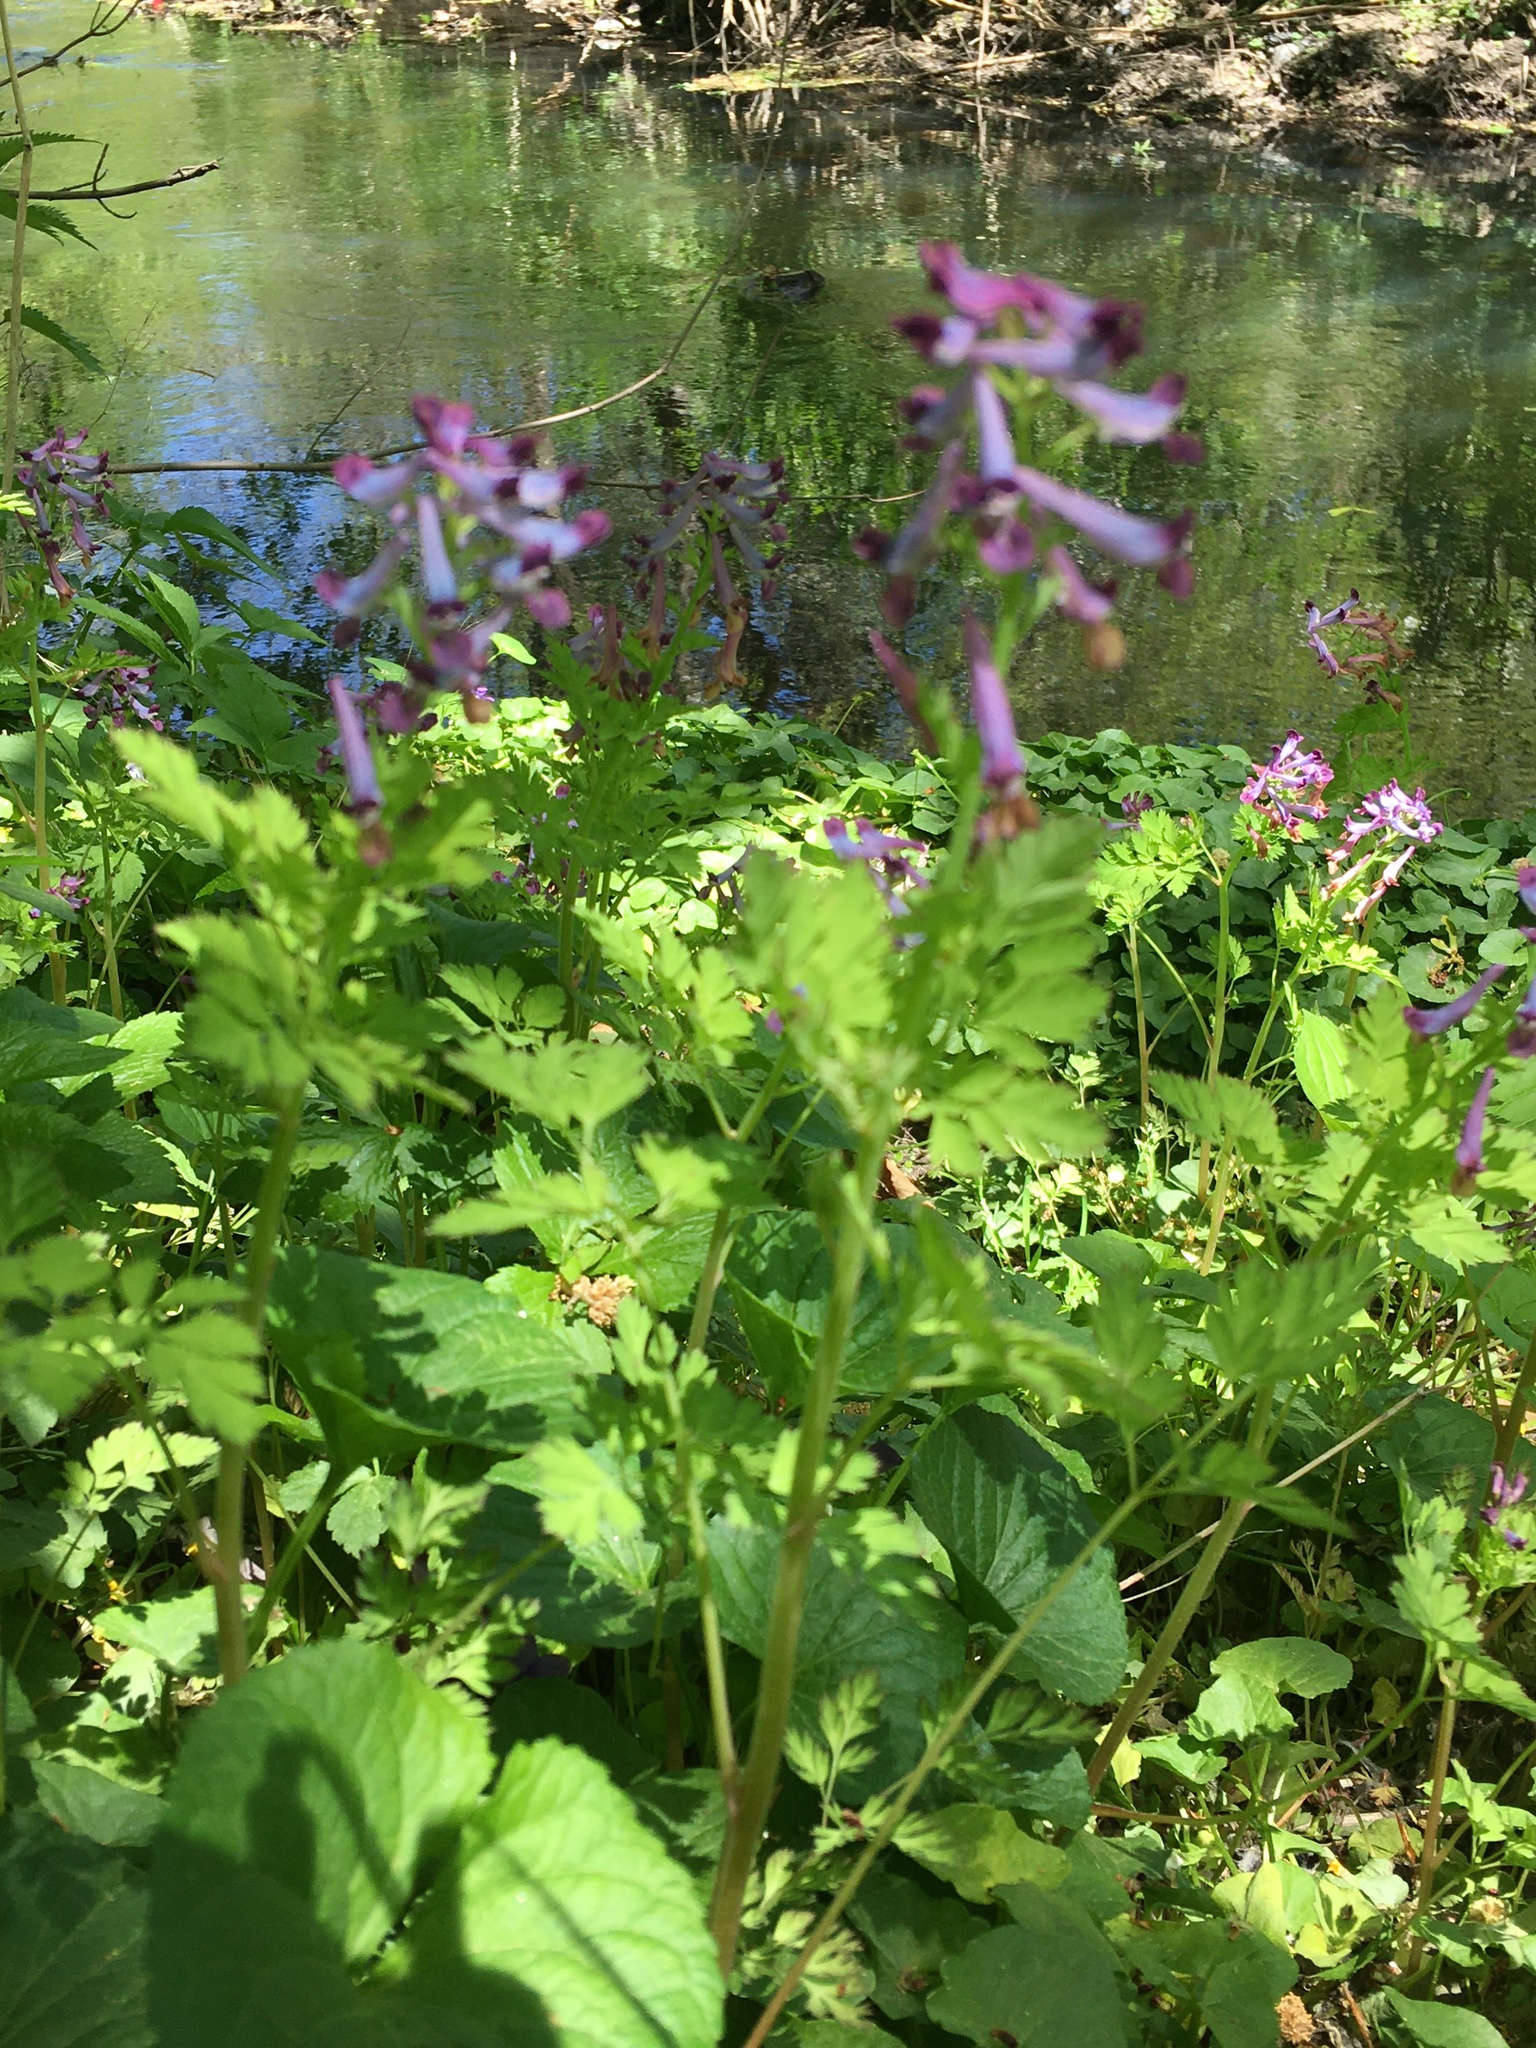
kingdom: Plantae
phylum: Tracheophyta
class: Magnoliopsida
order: Ranunculales
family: Papaveraceae
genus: Corydalis
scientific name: Corydalis incisa
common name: Incised fumewort
